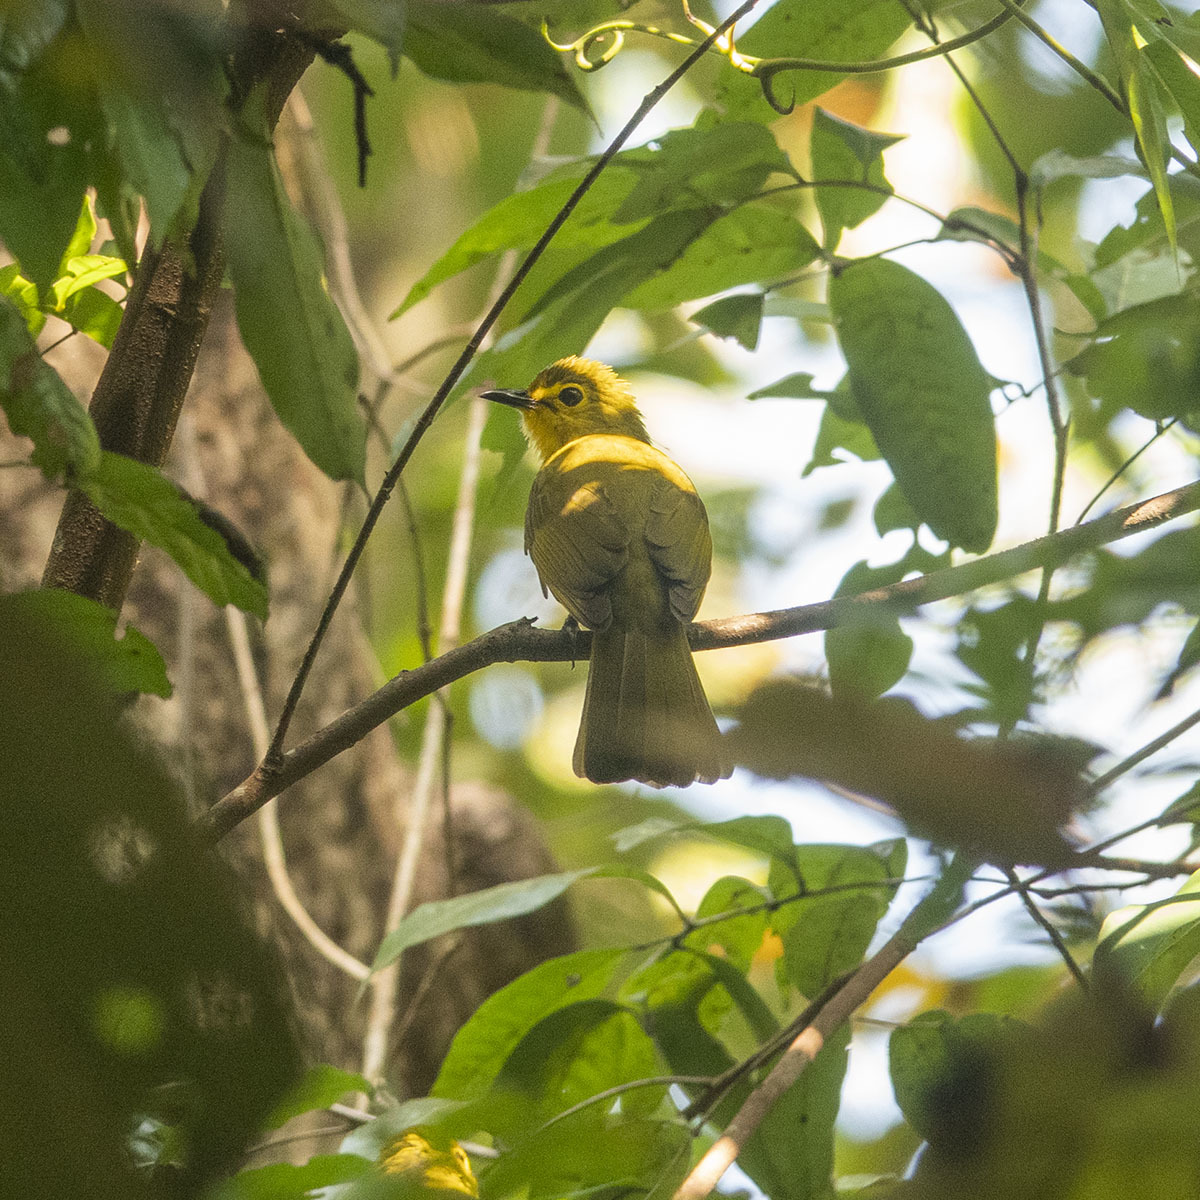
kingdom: Animalia
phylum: Chordata
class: Aves
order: Passeriformes
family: Pycnonotidae
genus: Acritillas
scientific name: Acritillas indica
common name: Yellow-browed bulbul
